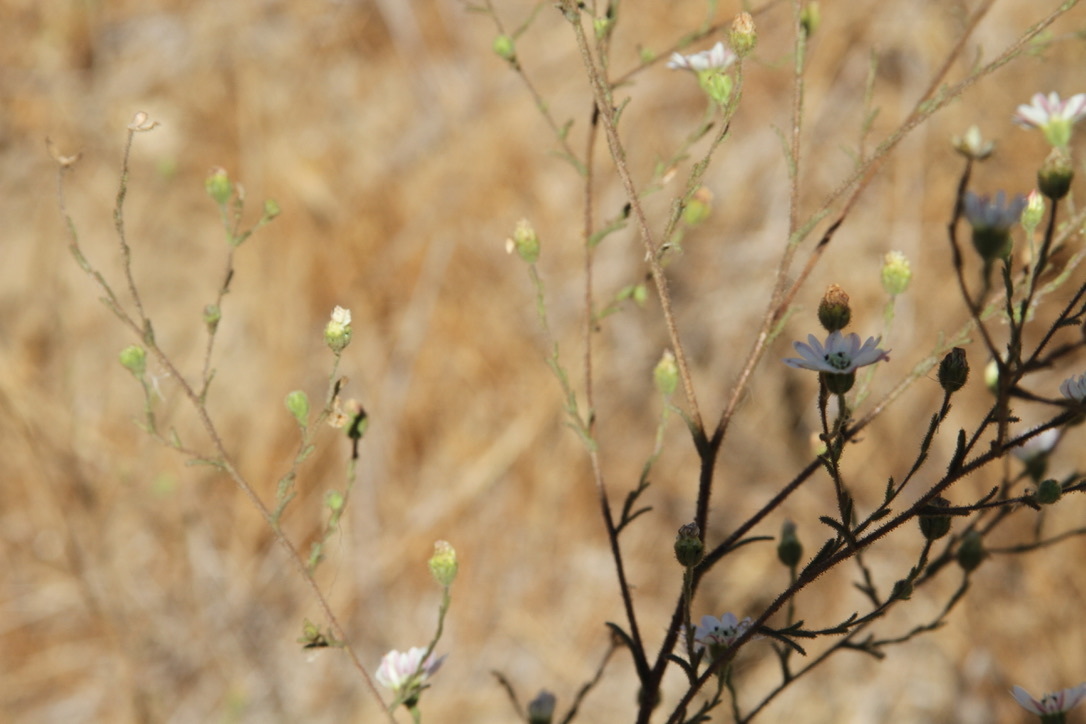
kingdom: Plantae
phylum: Tracheophyta
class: Magnoliopsida
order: Asterales
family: Asteraceae
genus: Hemizonia
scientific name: Hemizonia congesta
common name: Hayfield tarweed
